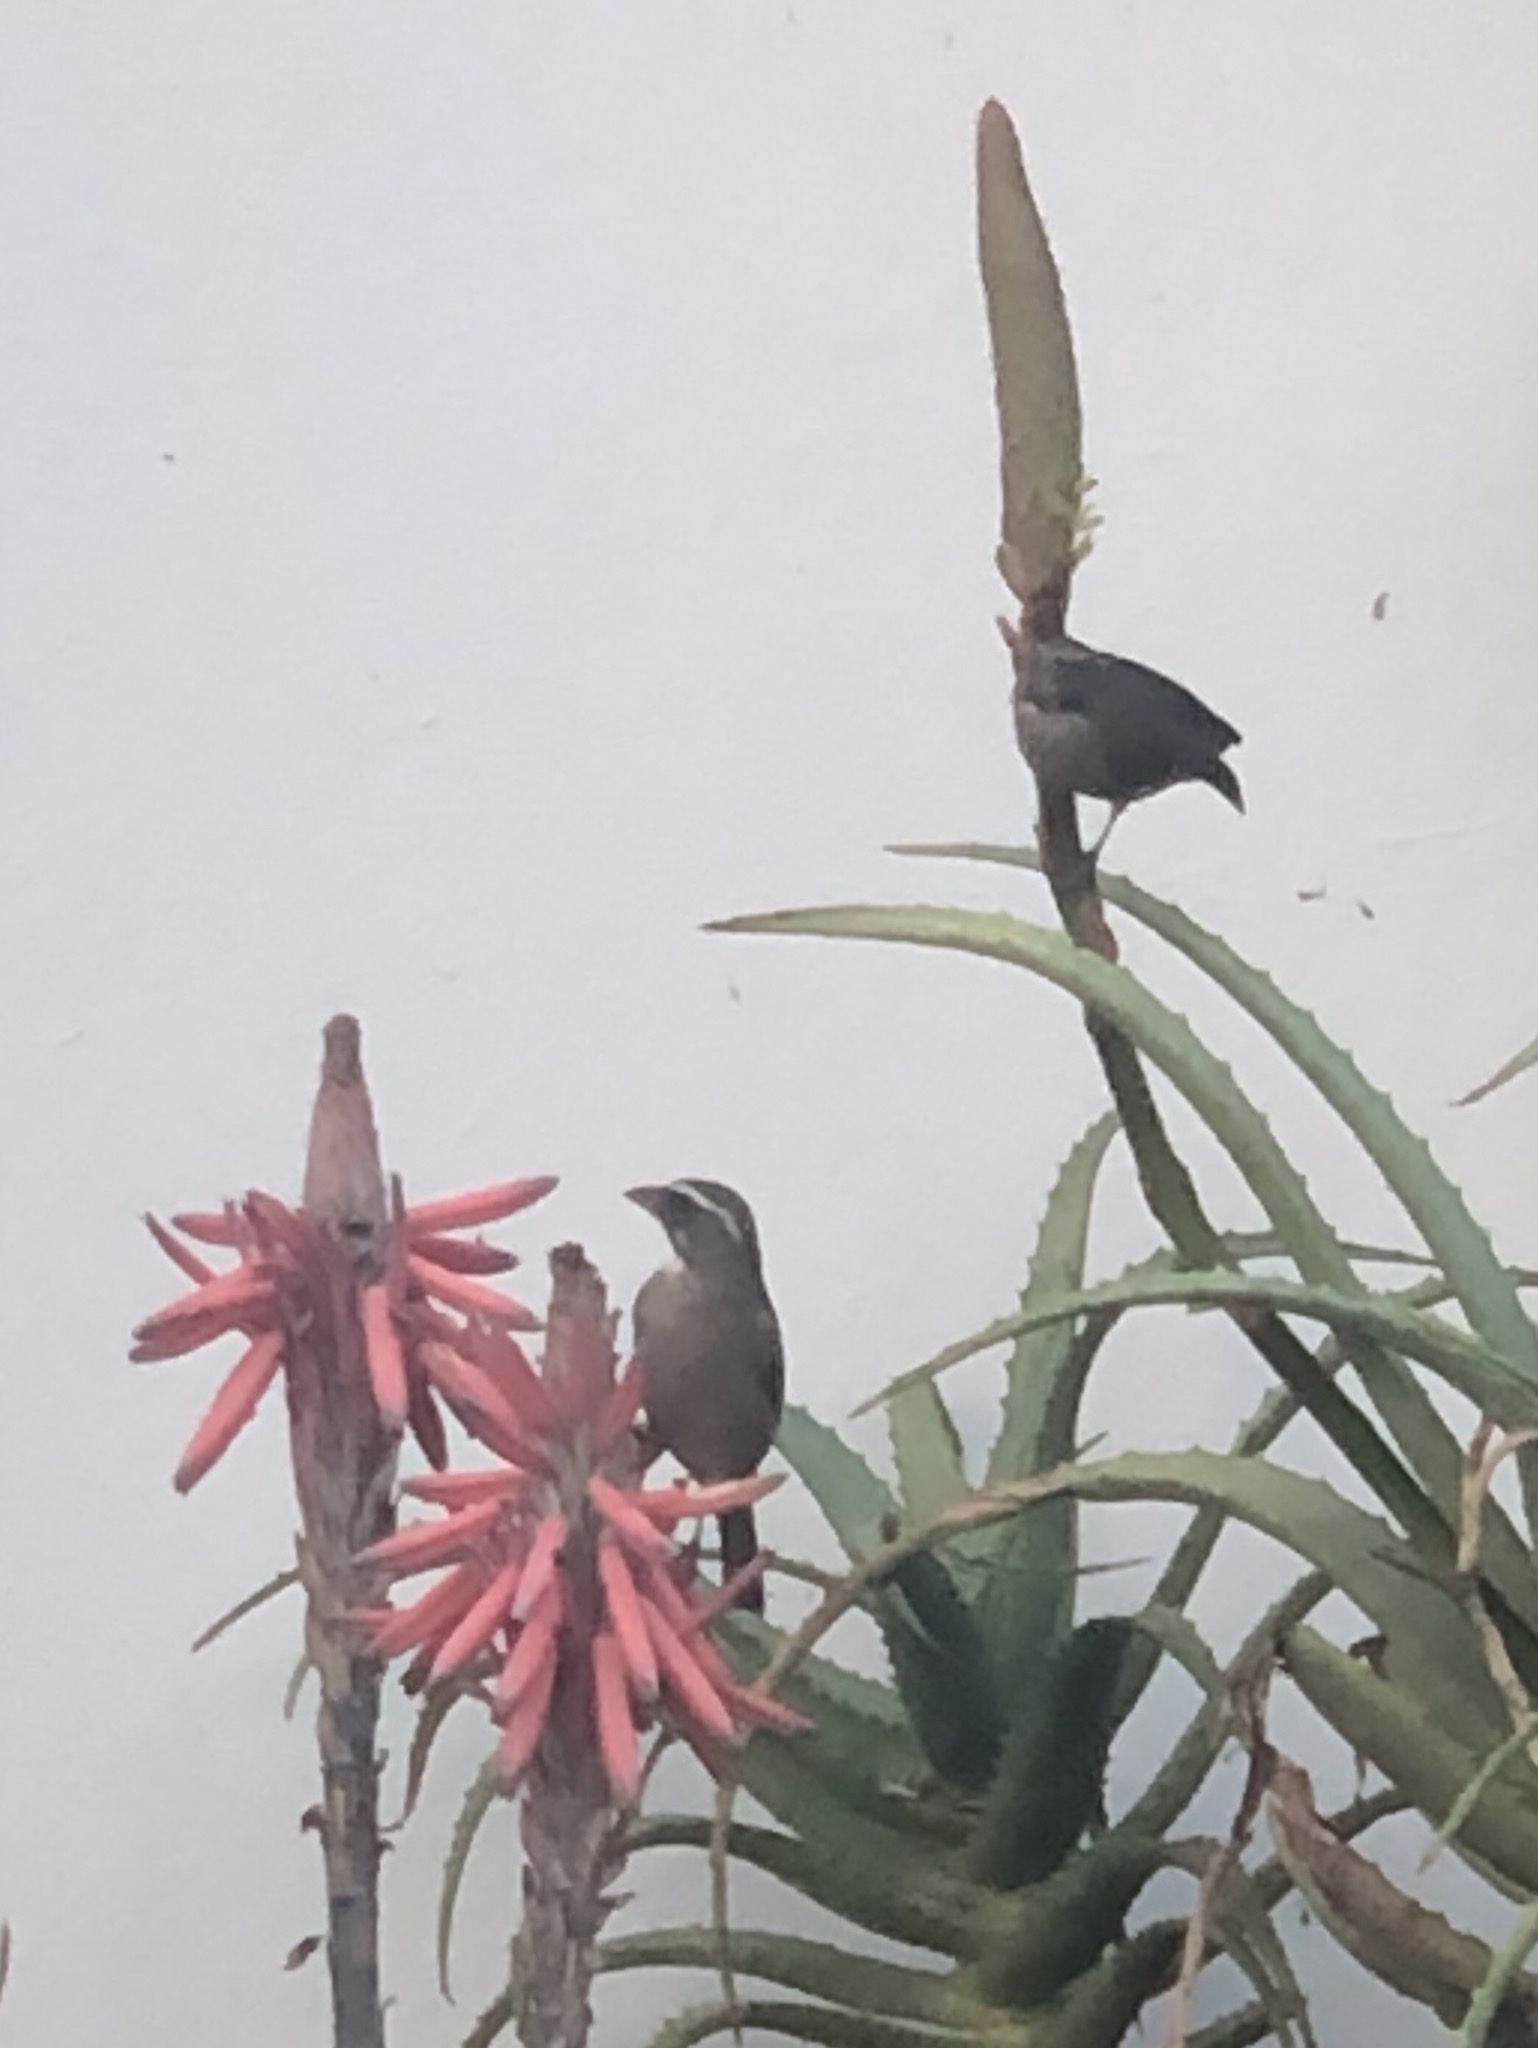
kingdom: Animalia
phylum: Chordata
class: Aves
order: Passeriformes
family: Fringillidae
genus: Crithagra
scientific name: Crithagra gularis
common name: Streaky-headed seedeater
